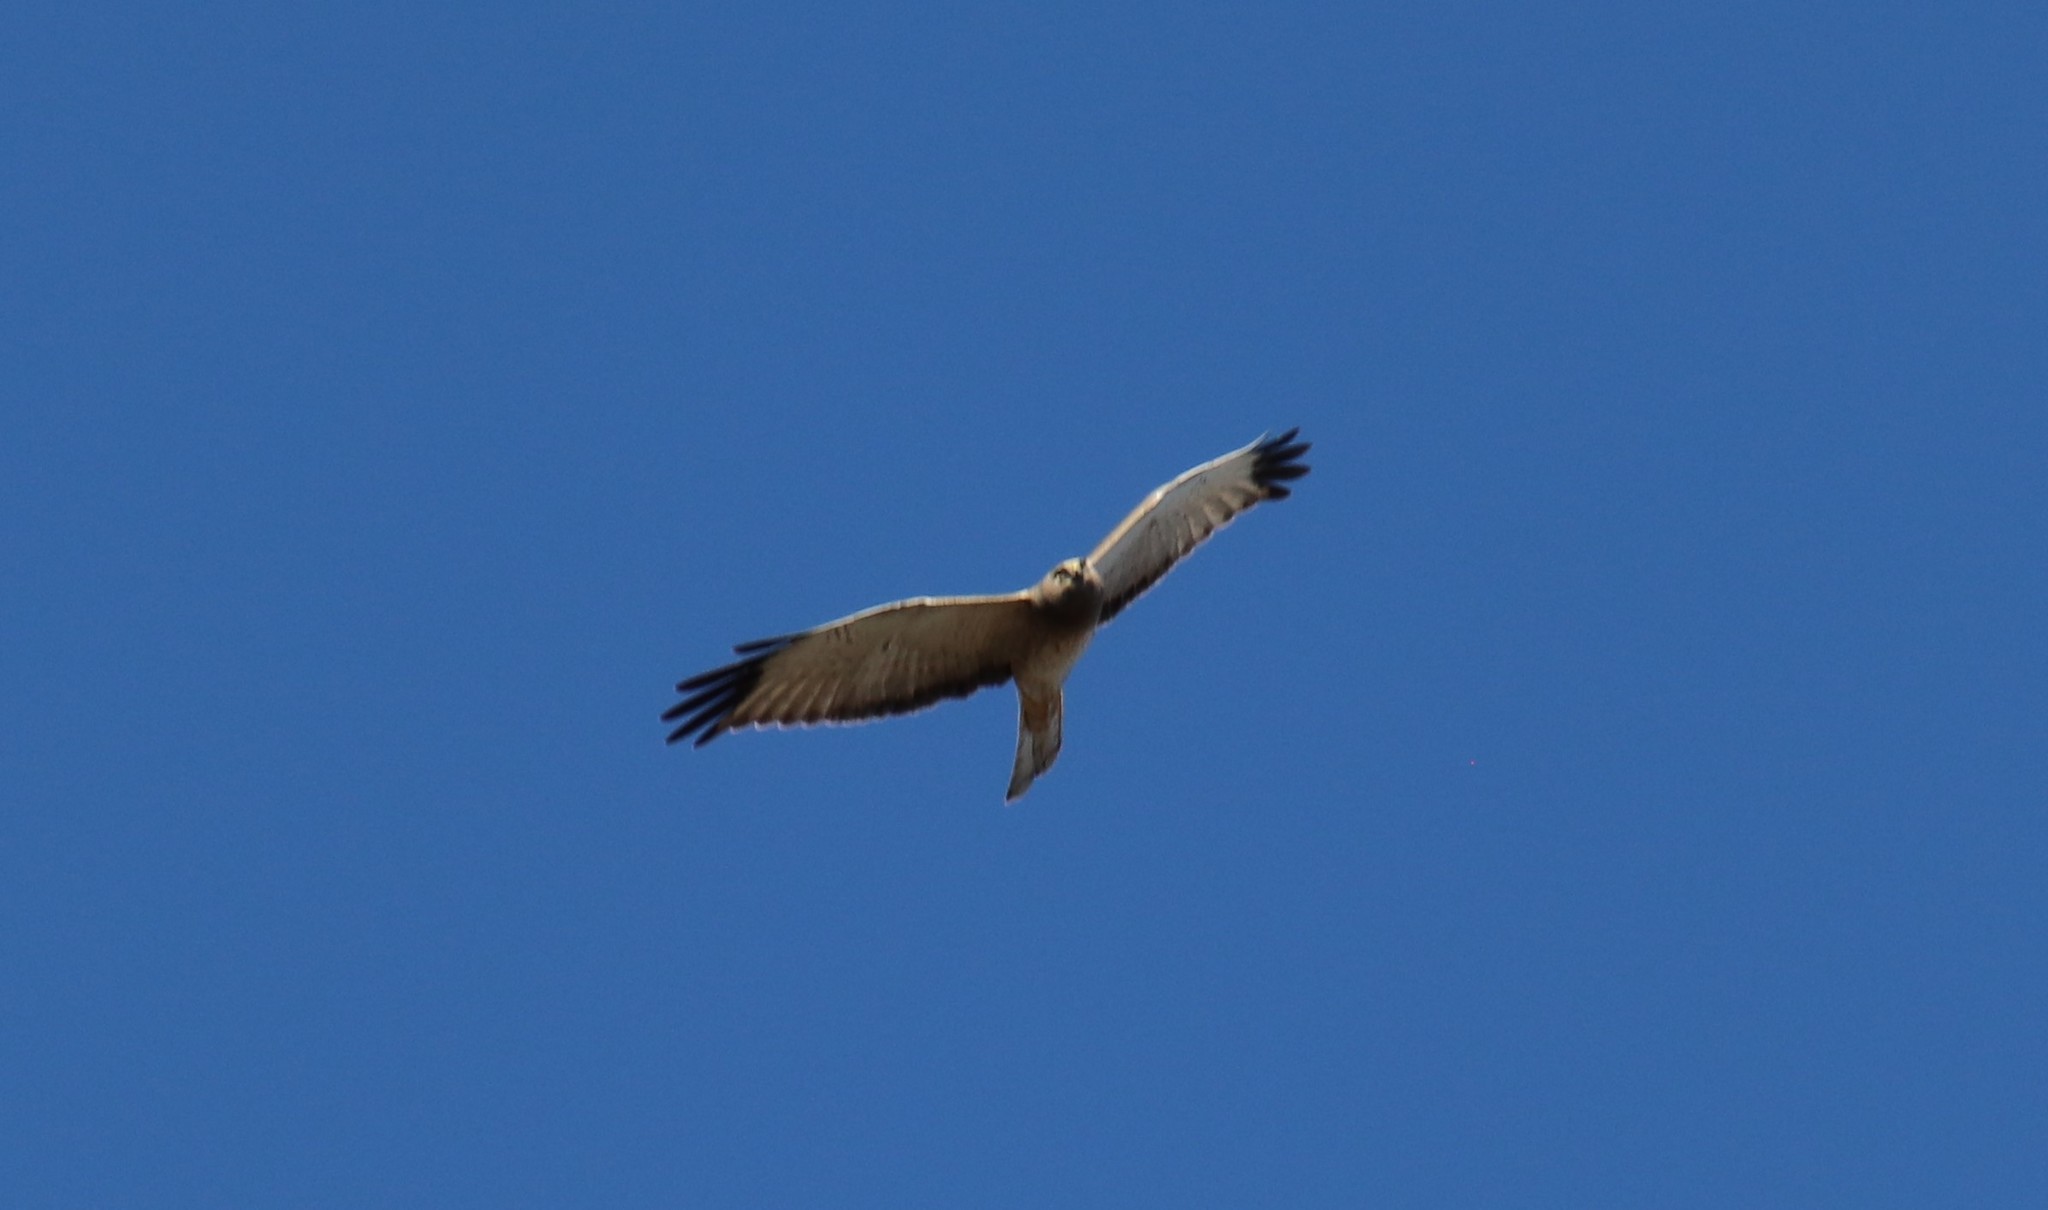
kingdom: Animalia
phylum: Chordata
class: Aves
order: Accipitriformes
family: Accipitridae
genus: Circus
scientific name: Circus cyaneus
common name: Hen harrier
